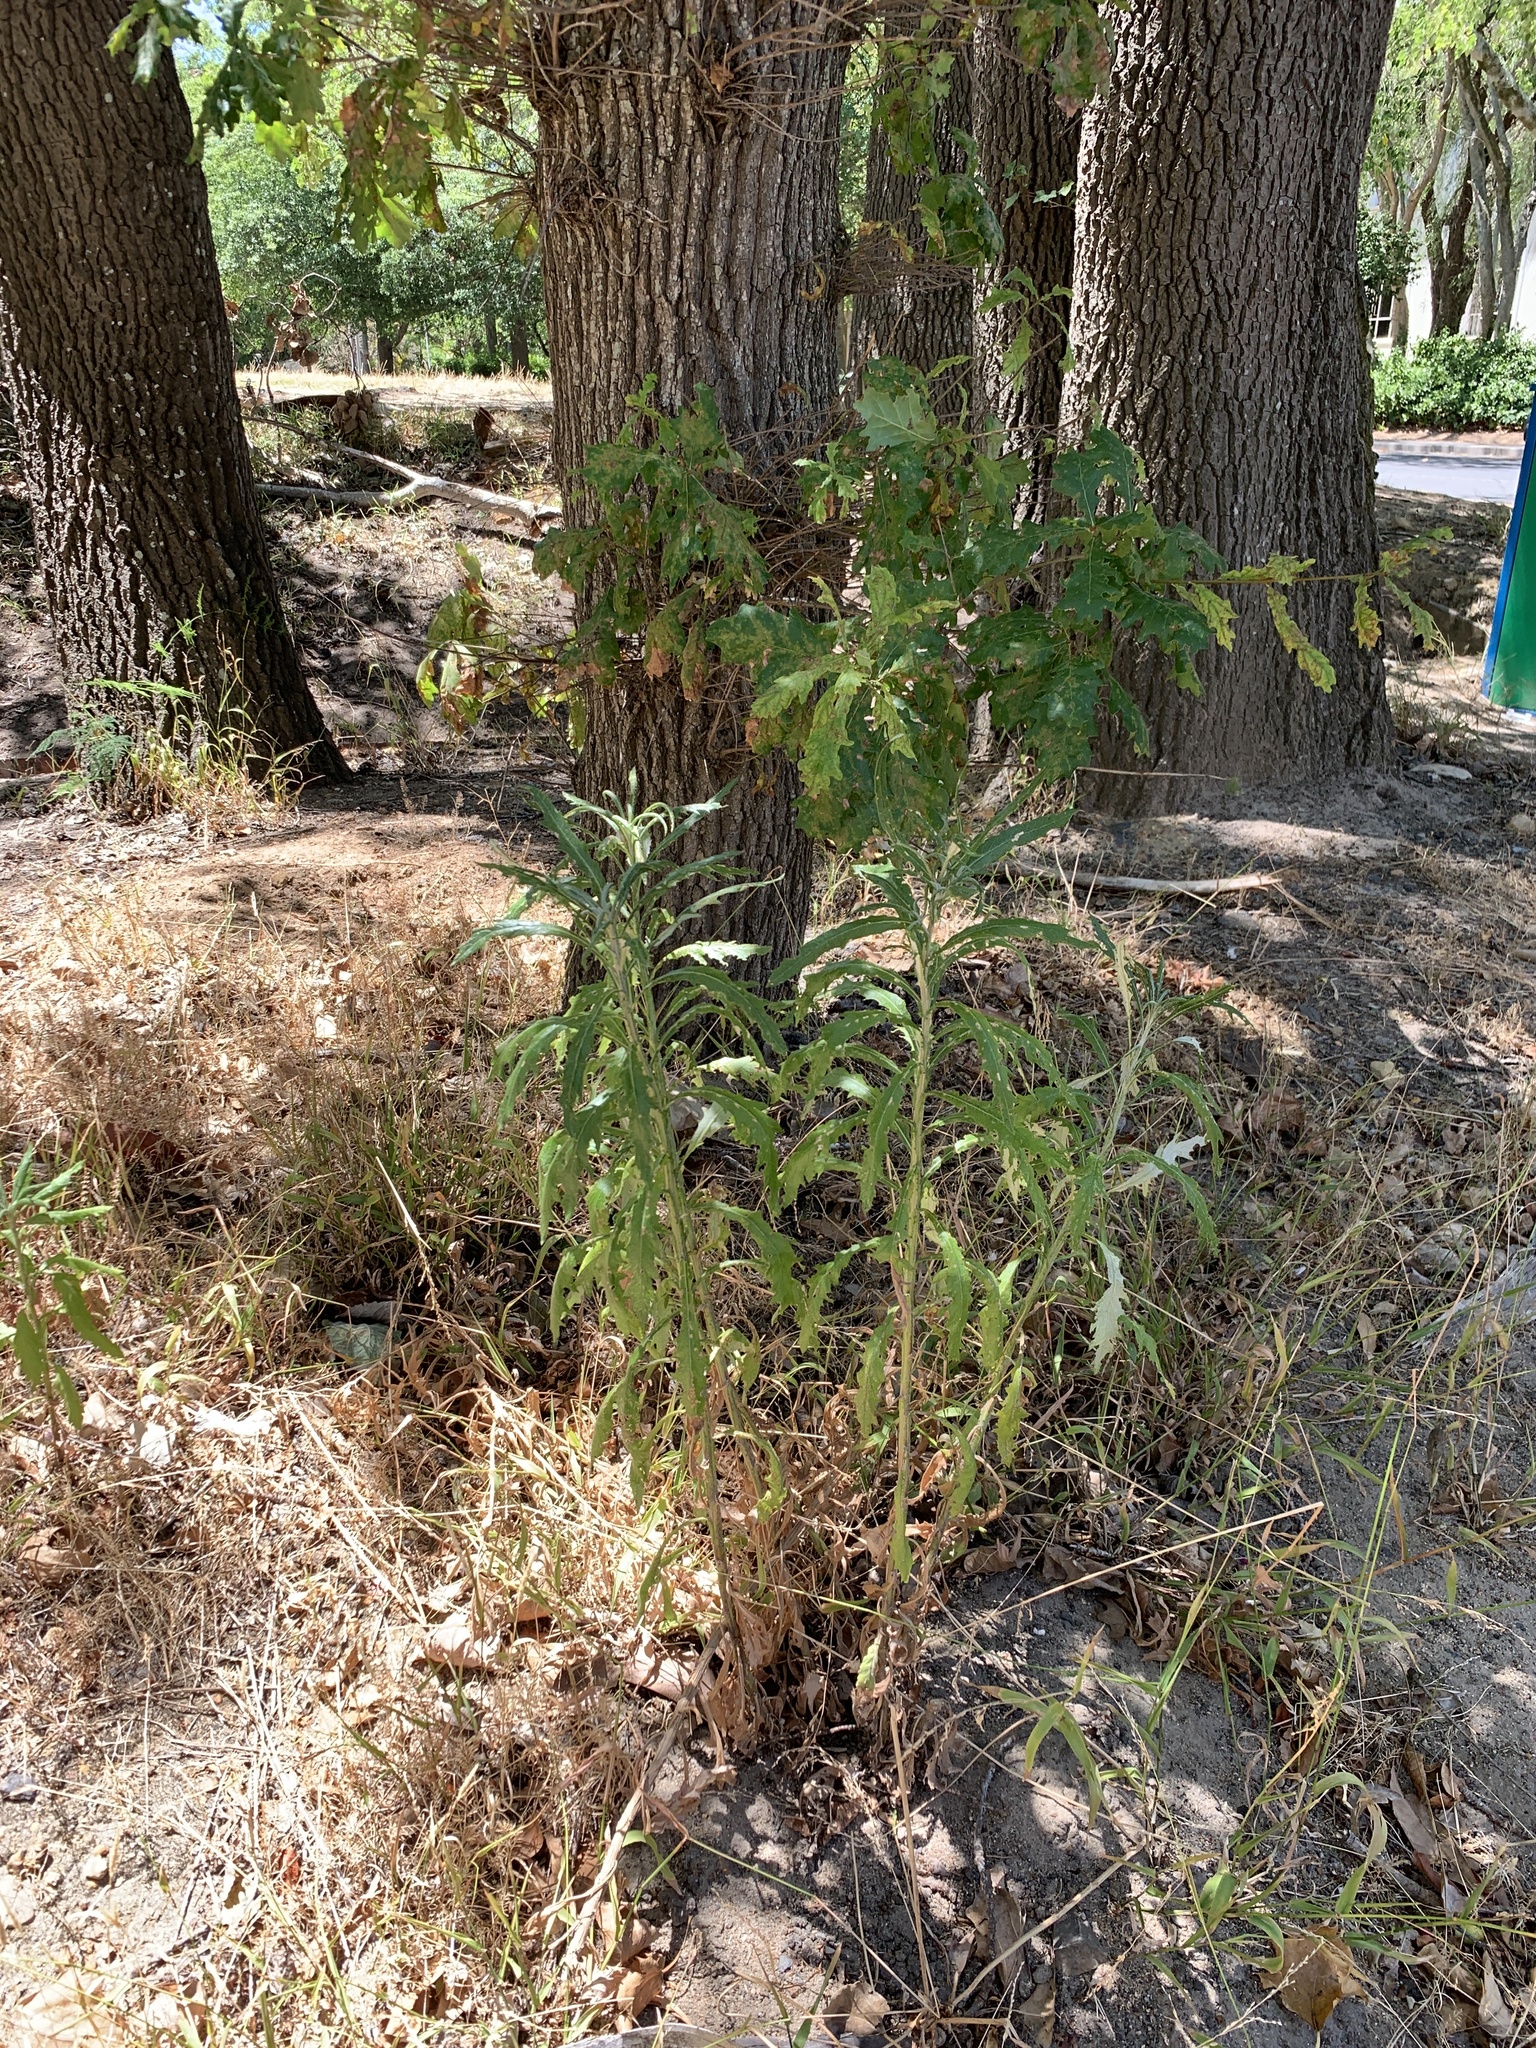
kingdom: Plantae
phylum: Tracheophyta
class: Magnoliopsida
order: Asterales
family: Asteraceae
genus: Senecio
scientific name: Senecio pterophorus
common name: Shoddy ragwort
